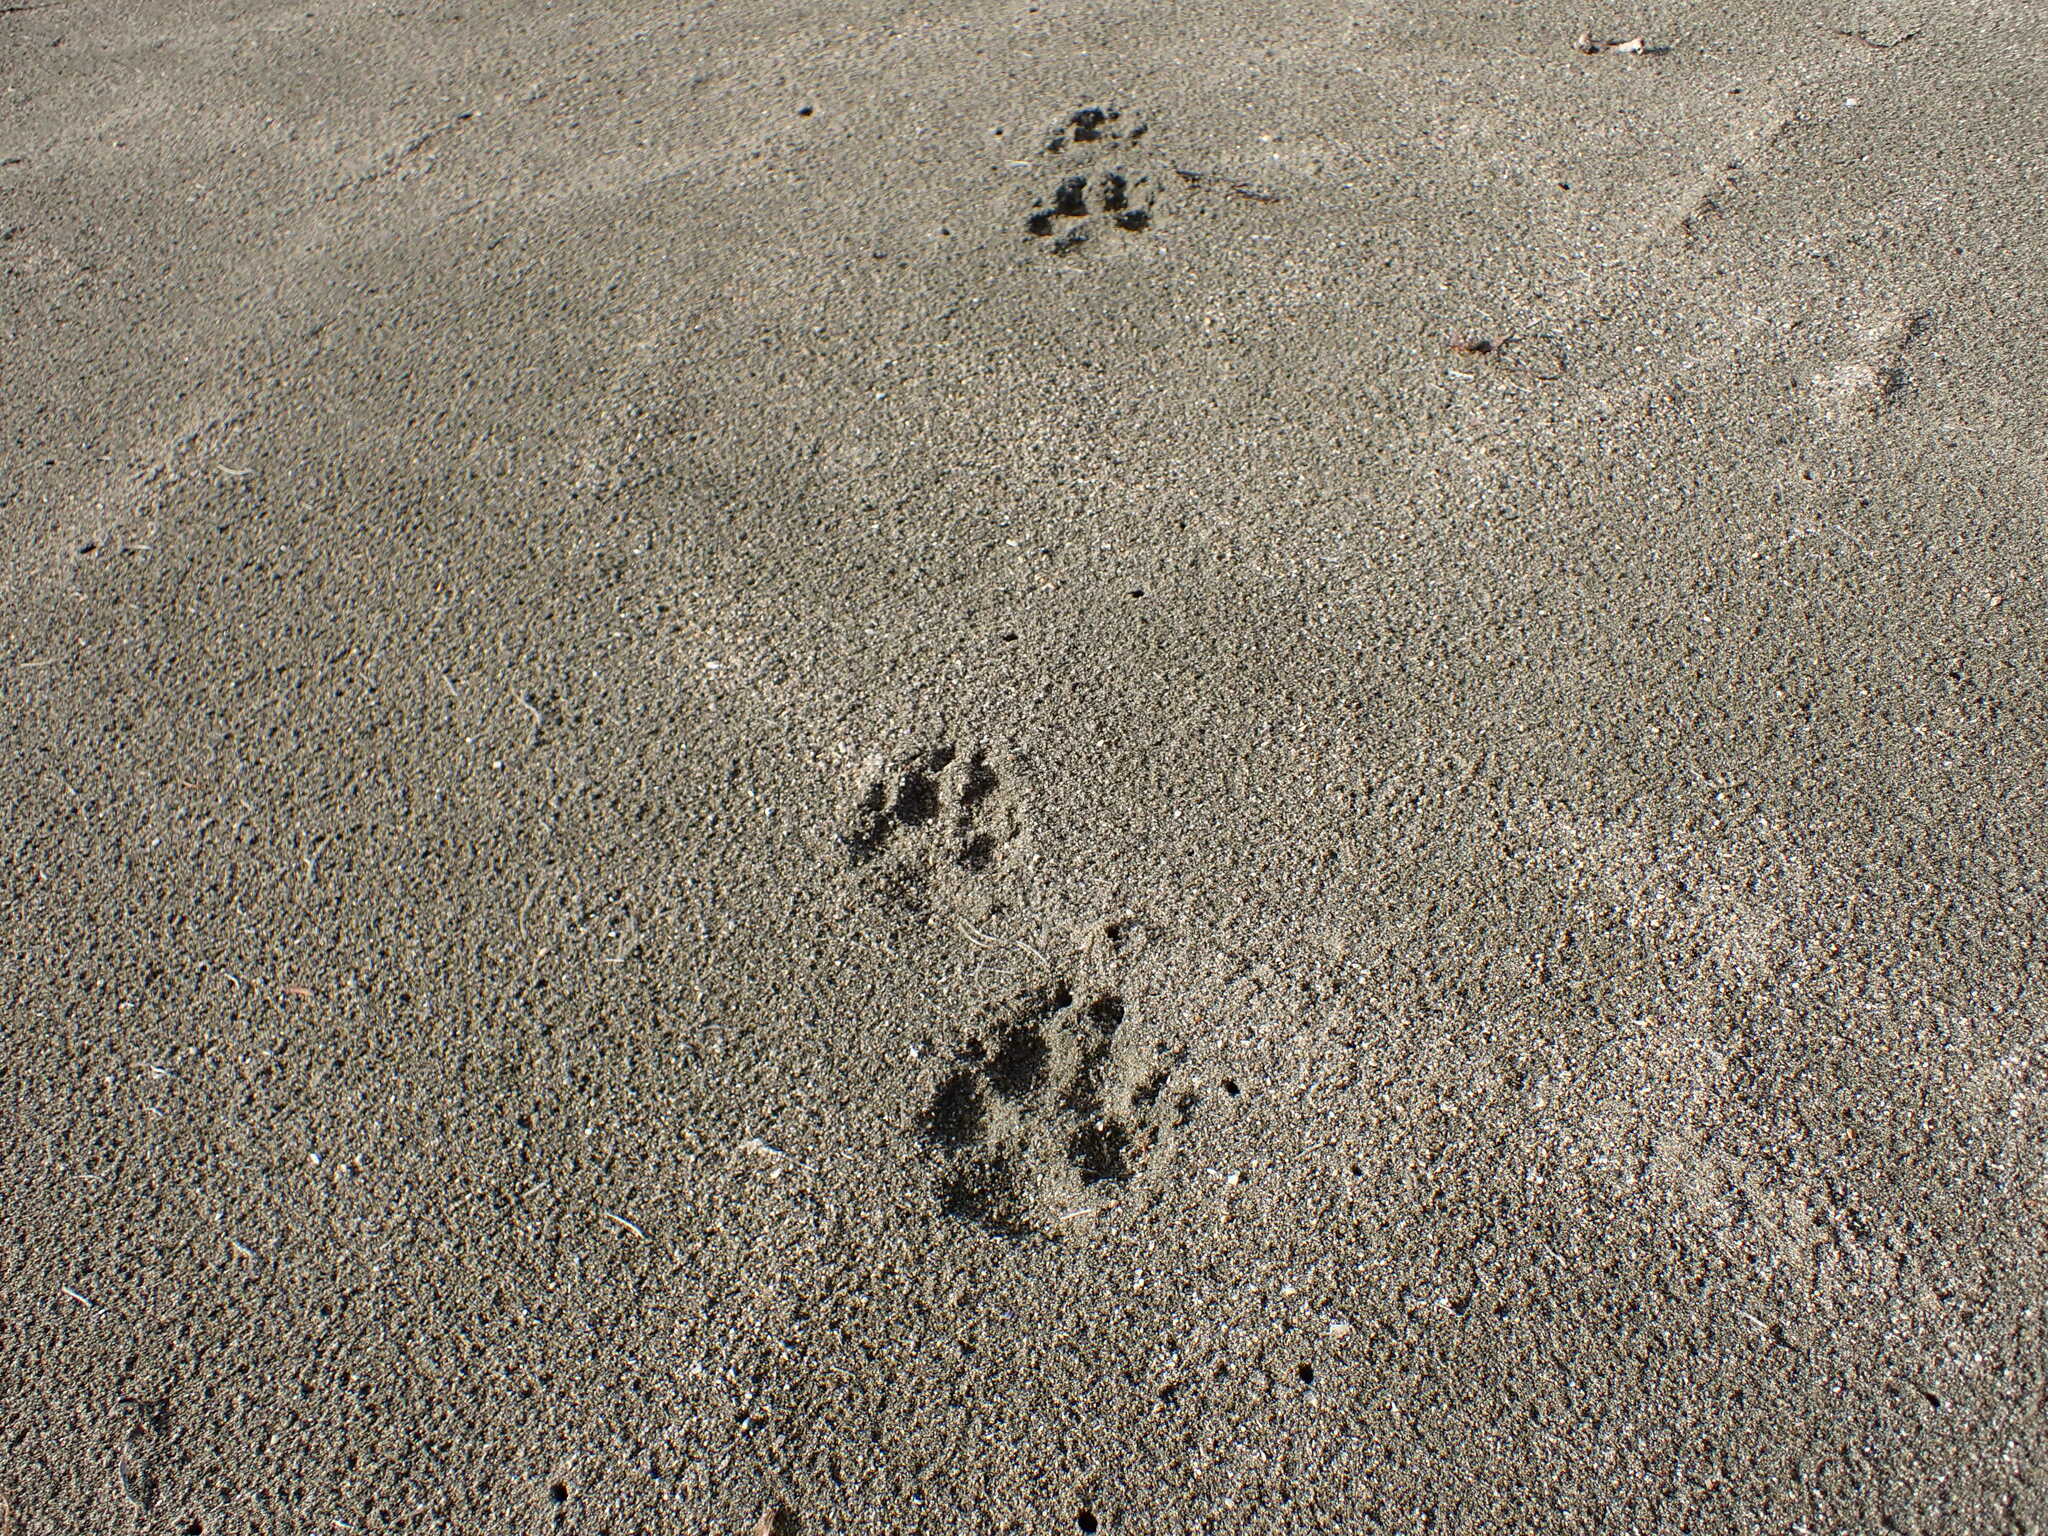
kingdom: Animalia
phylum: Chordata
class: Mammalia
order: Carnivora
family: Canidae
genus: Canis
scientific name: Canis
